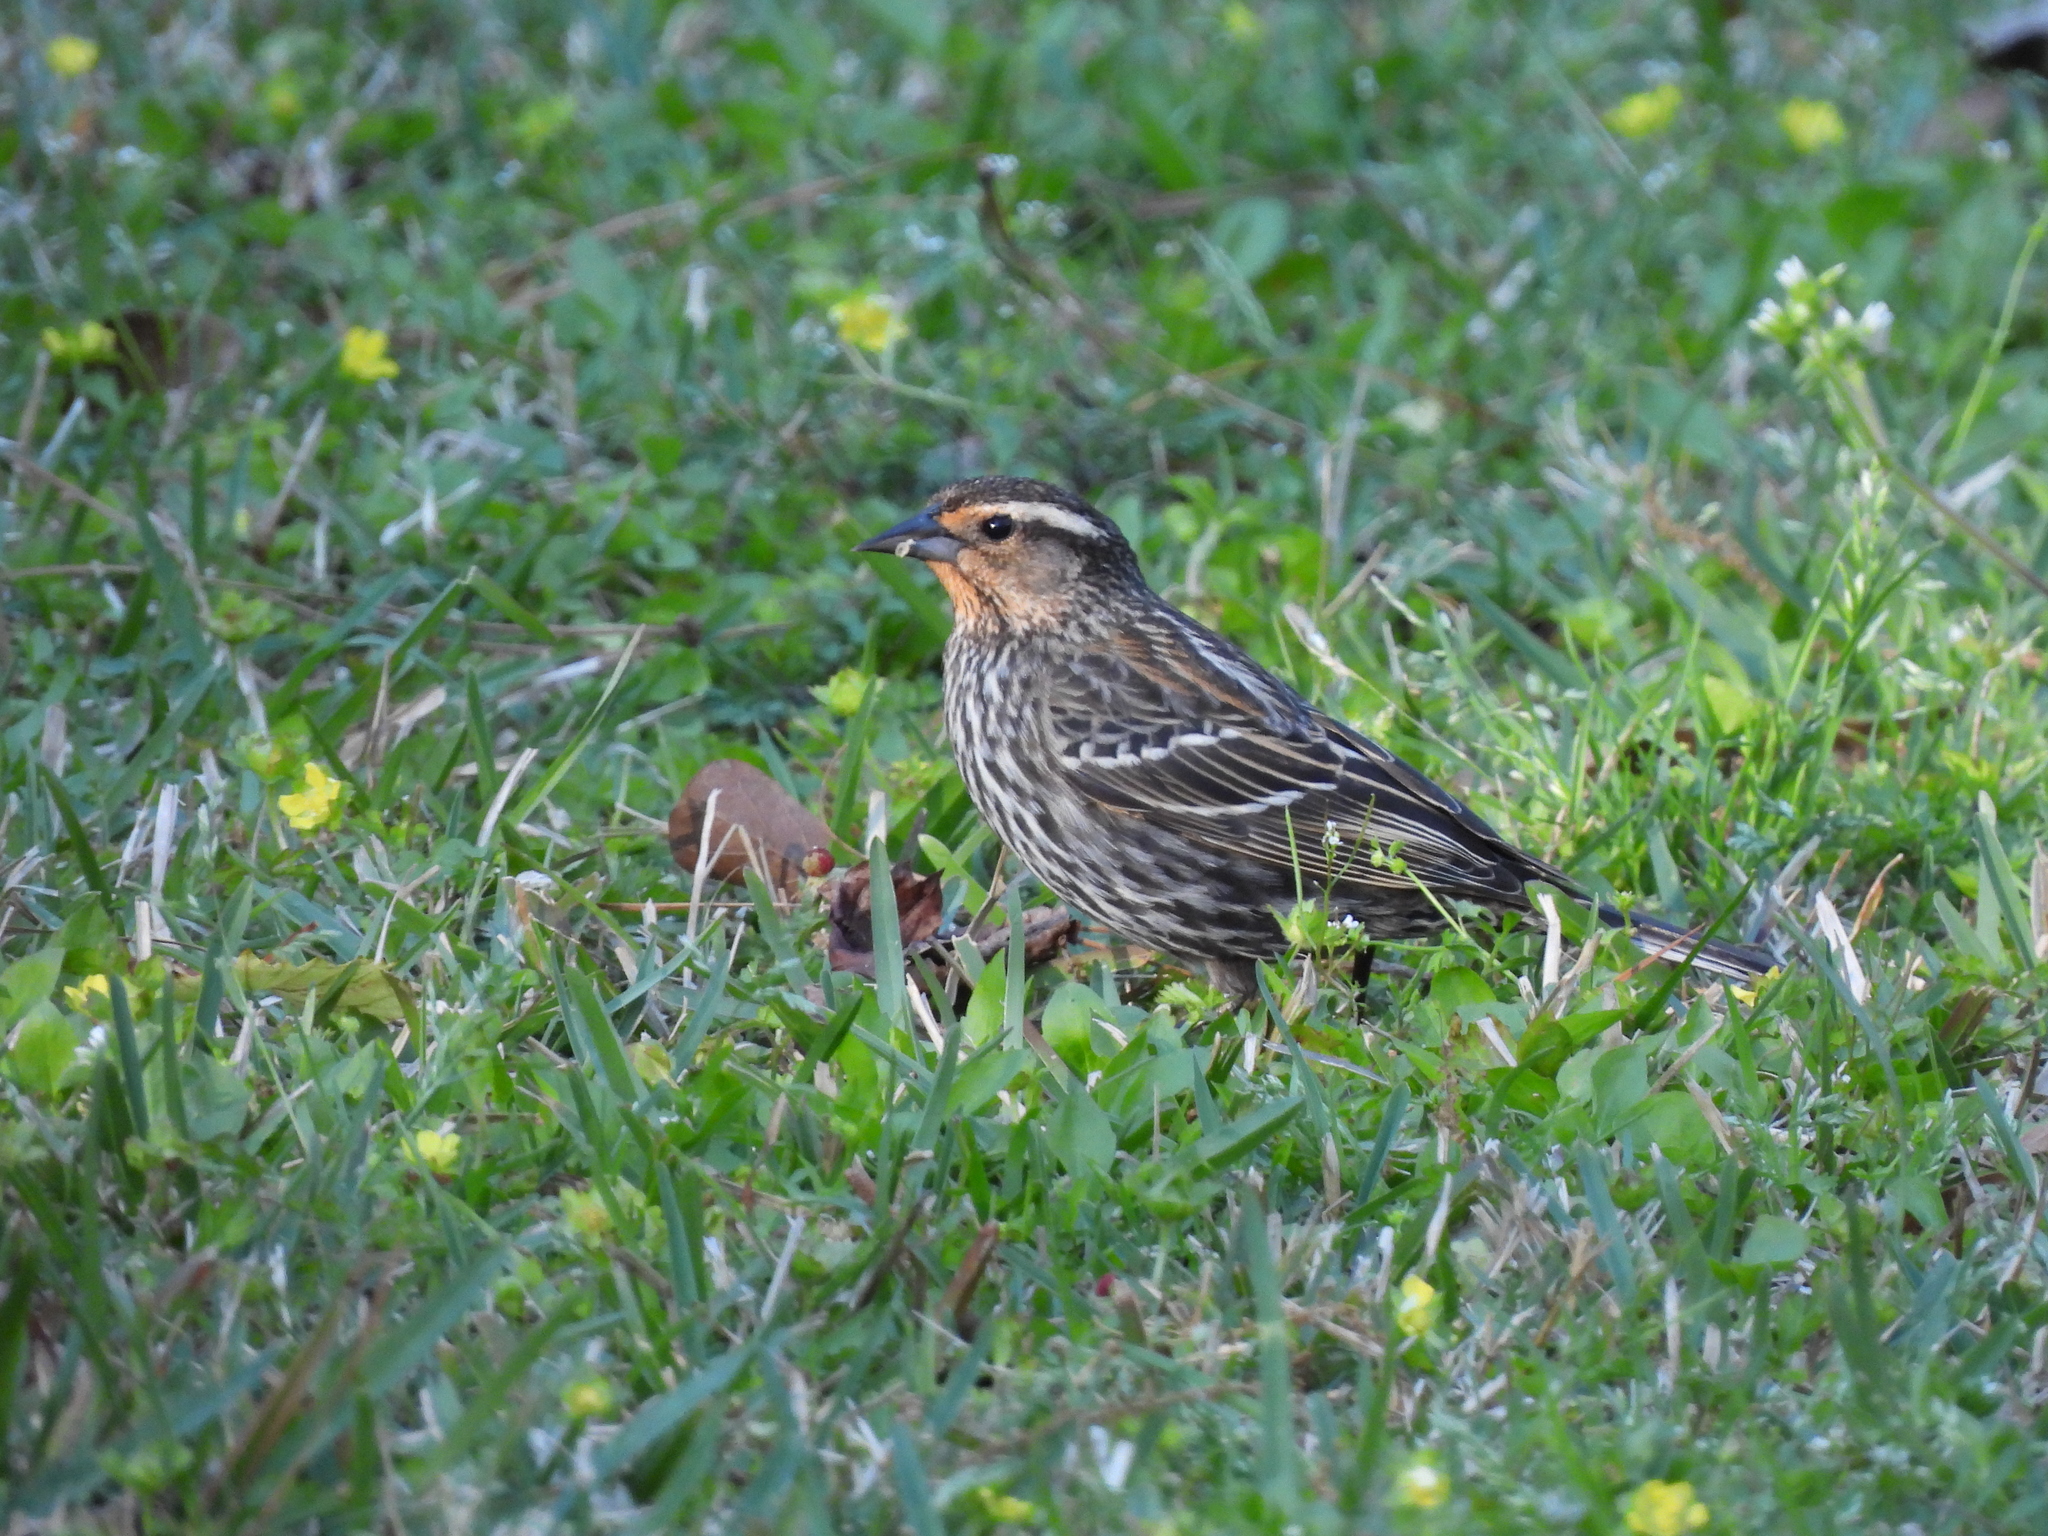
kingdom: Animalia
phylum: Chordata
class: Aves
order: Passeriformes
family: Icteridae
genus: Agelaius
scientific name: Agelaius phoeniceus
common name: Red-winged blackbird
